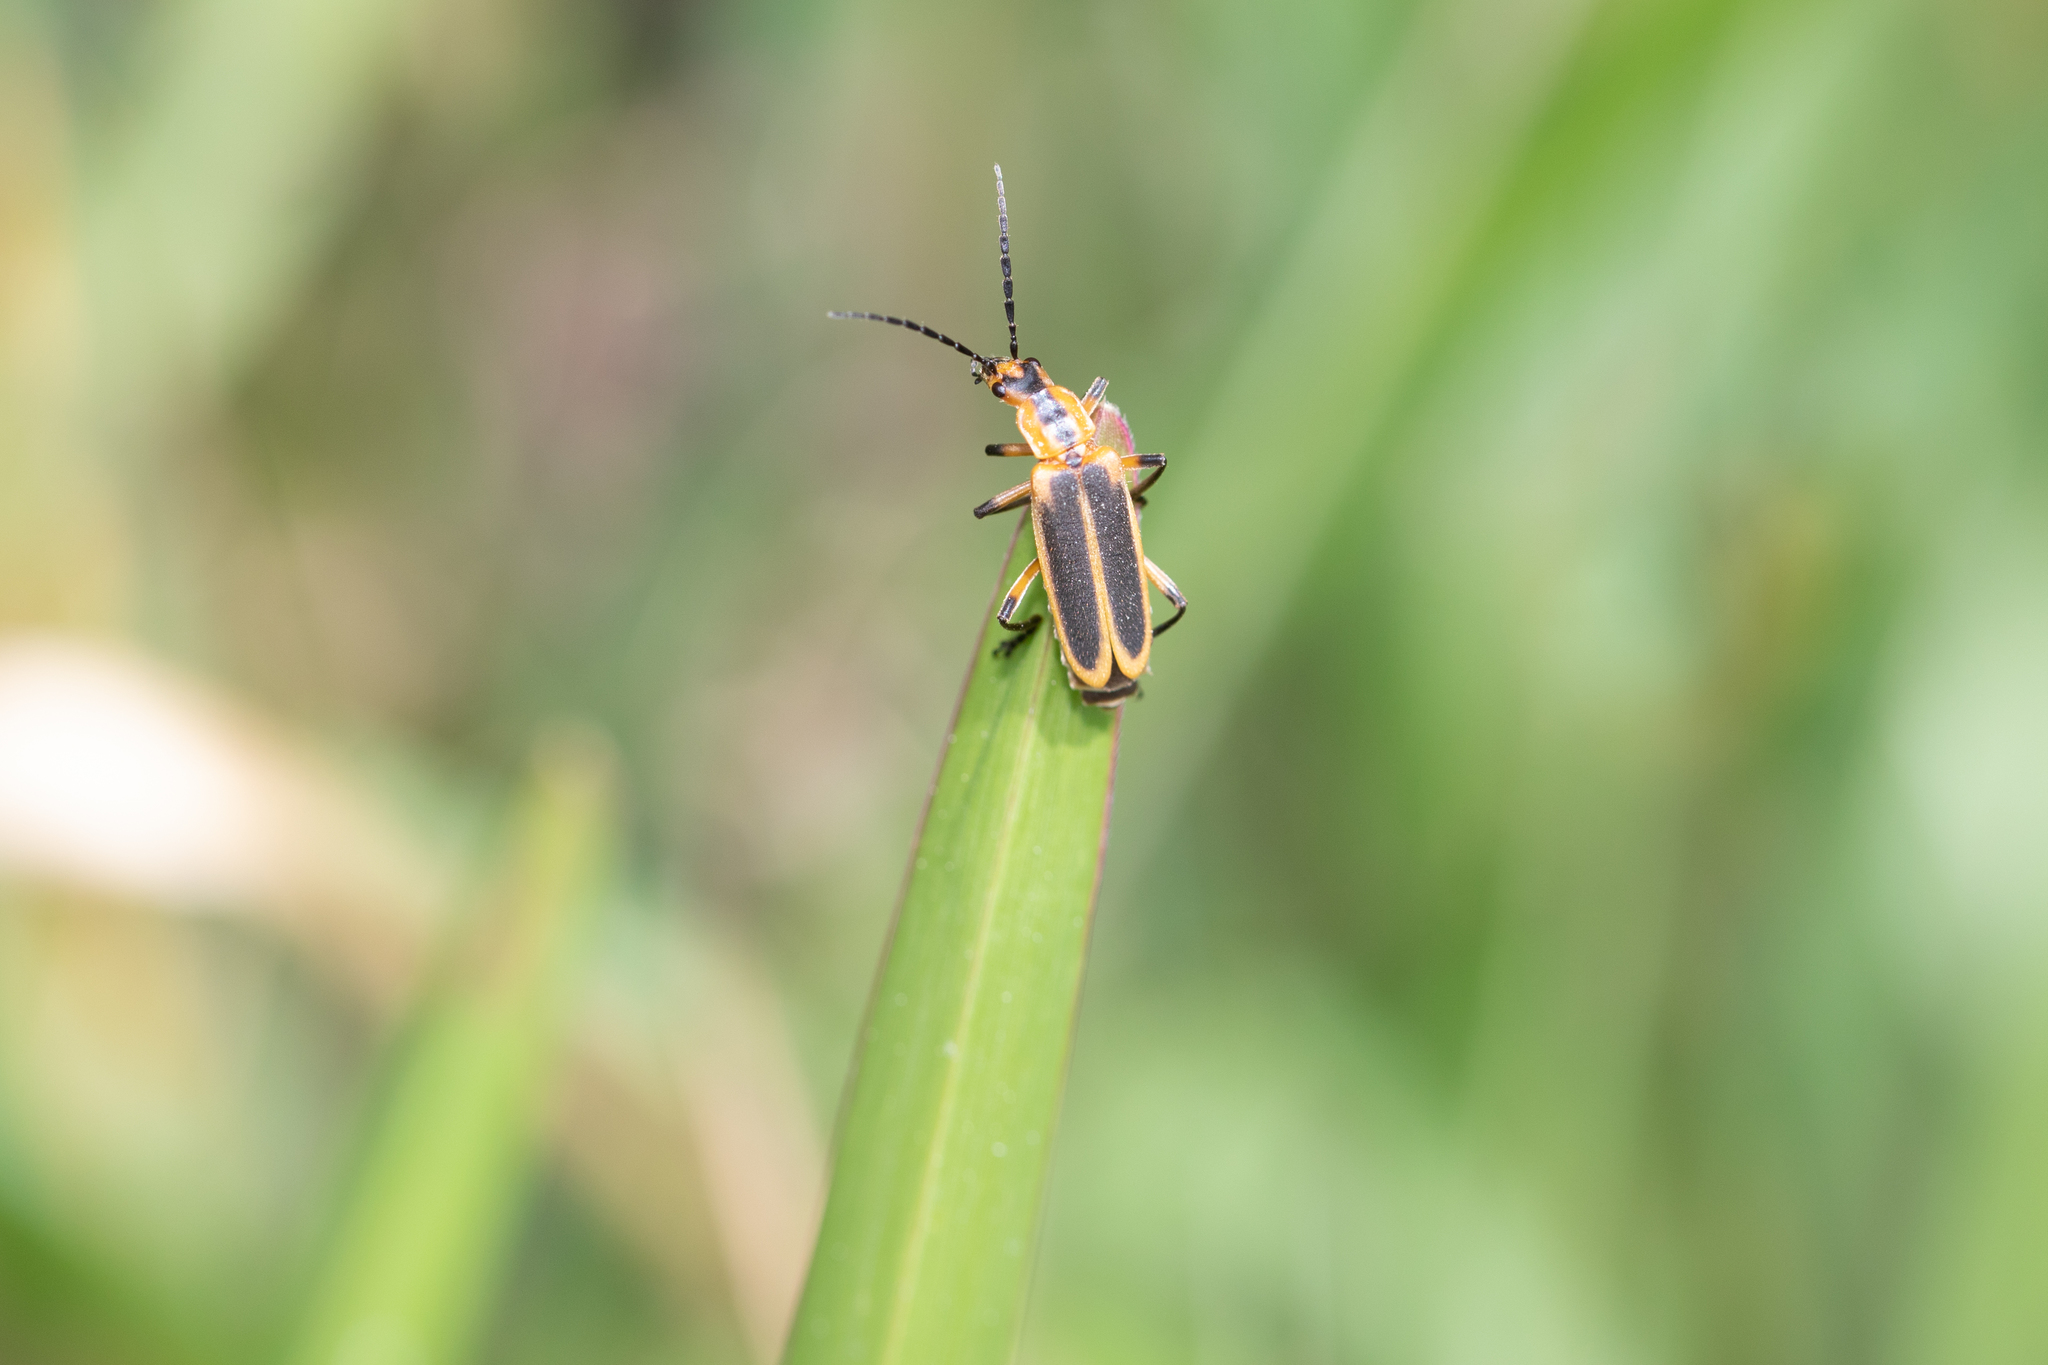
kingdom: Animalia
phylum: Arthropoda
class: Insecta
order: Coleoptera
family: Cantharidae
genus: Chauliognathus
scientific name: Chauliognathus marginatus
